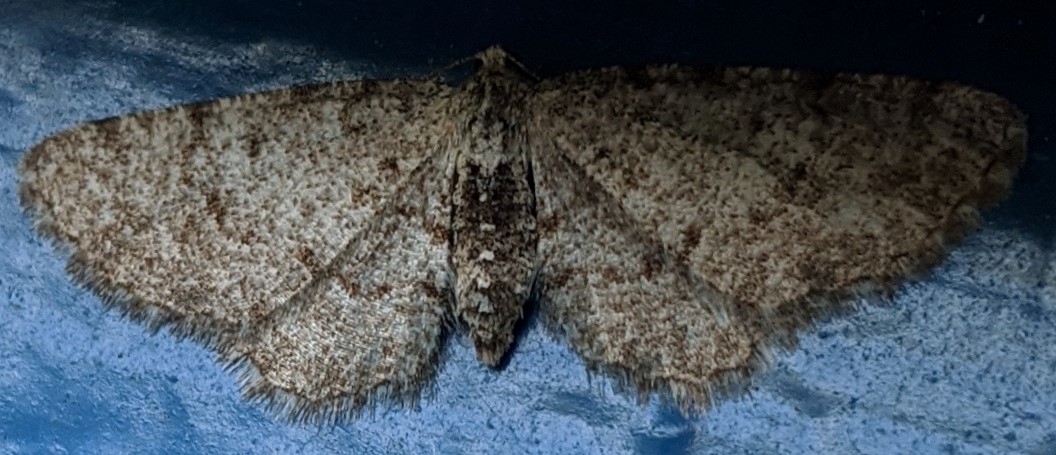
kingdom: Animalia
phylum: Arthropoda
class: Insecta
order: Lepidoptera
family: Geometridae
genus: Aethalura
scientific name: Aethalura intertexta
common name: Four-barred gray
